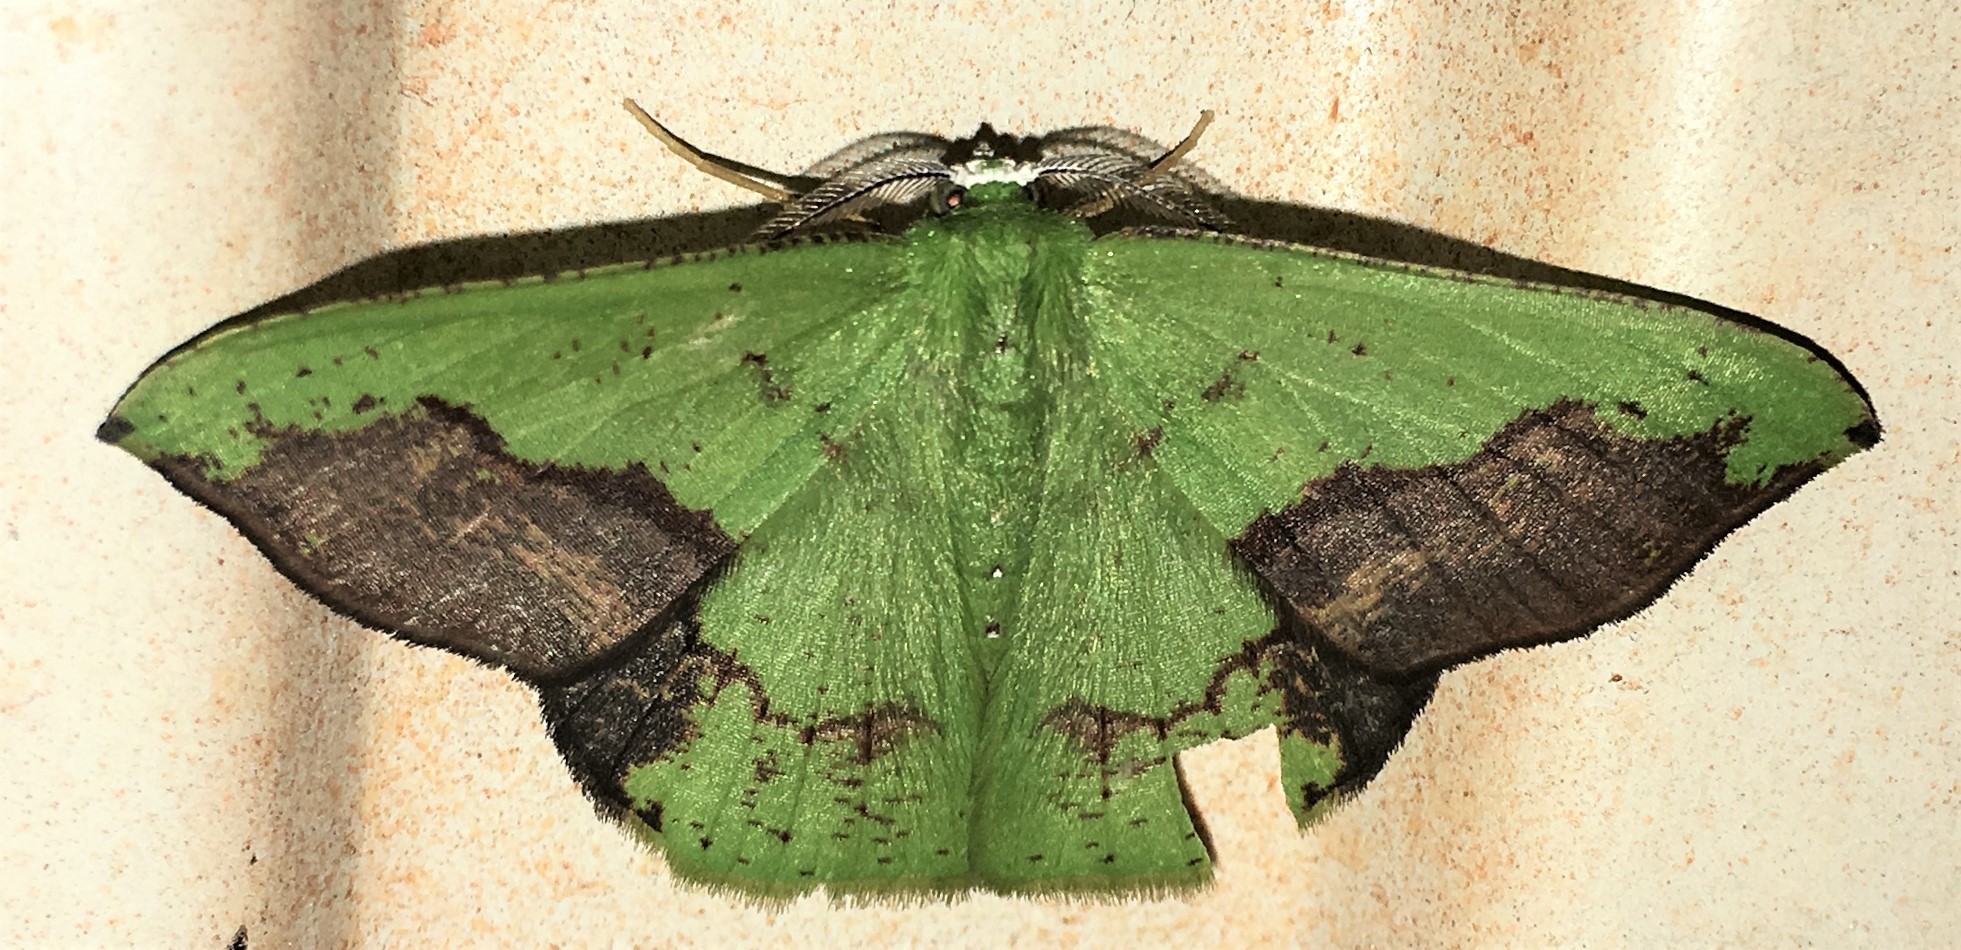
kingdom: Animalia
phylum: Arthropoda
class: Insecta
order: Lepidoptera
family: Geometridae
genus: Phrudocentra
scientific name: Phrudocentra vagilinea
